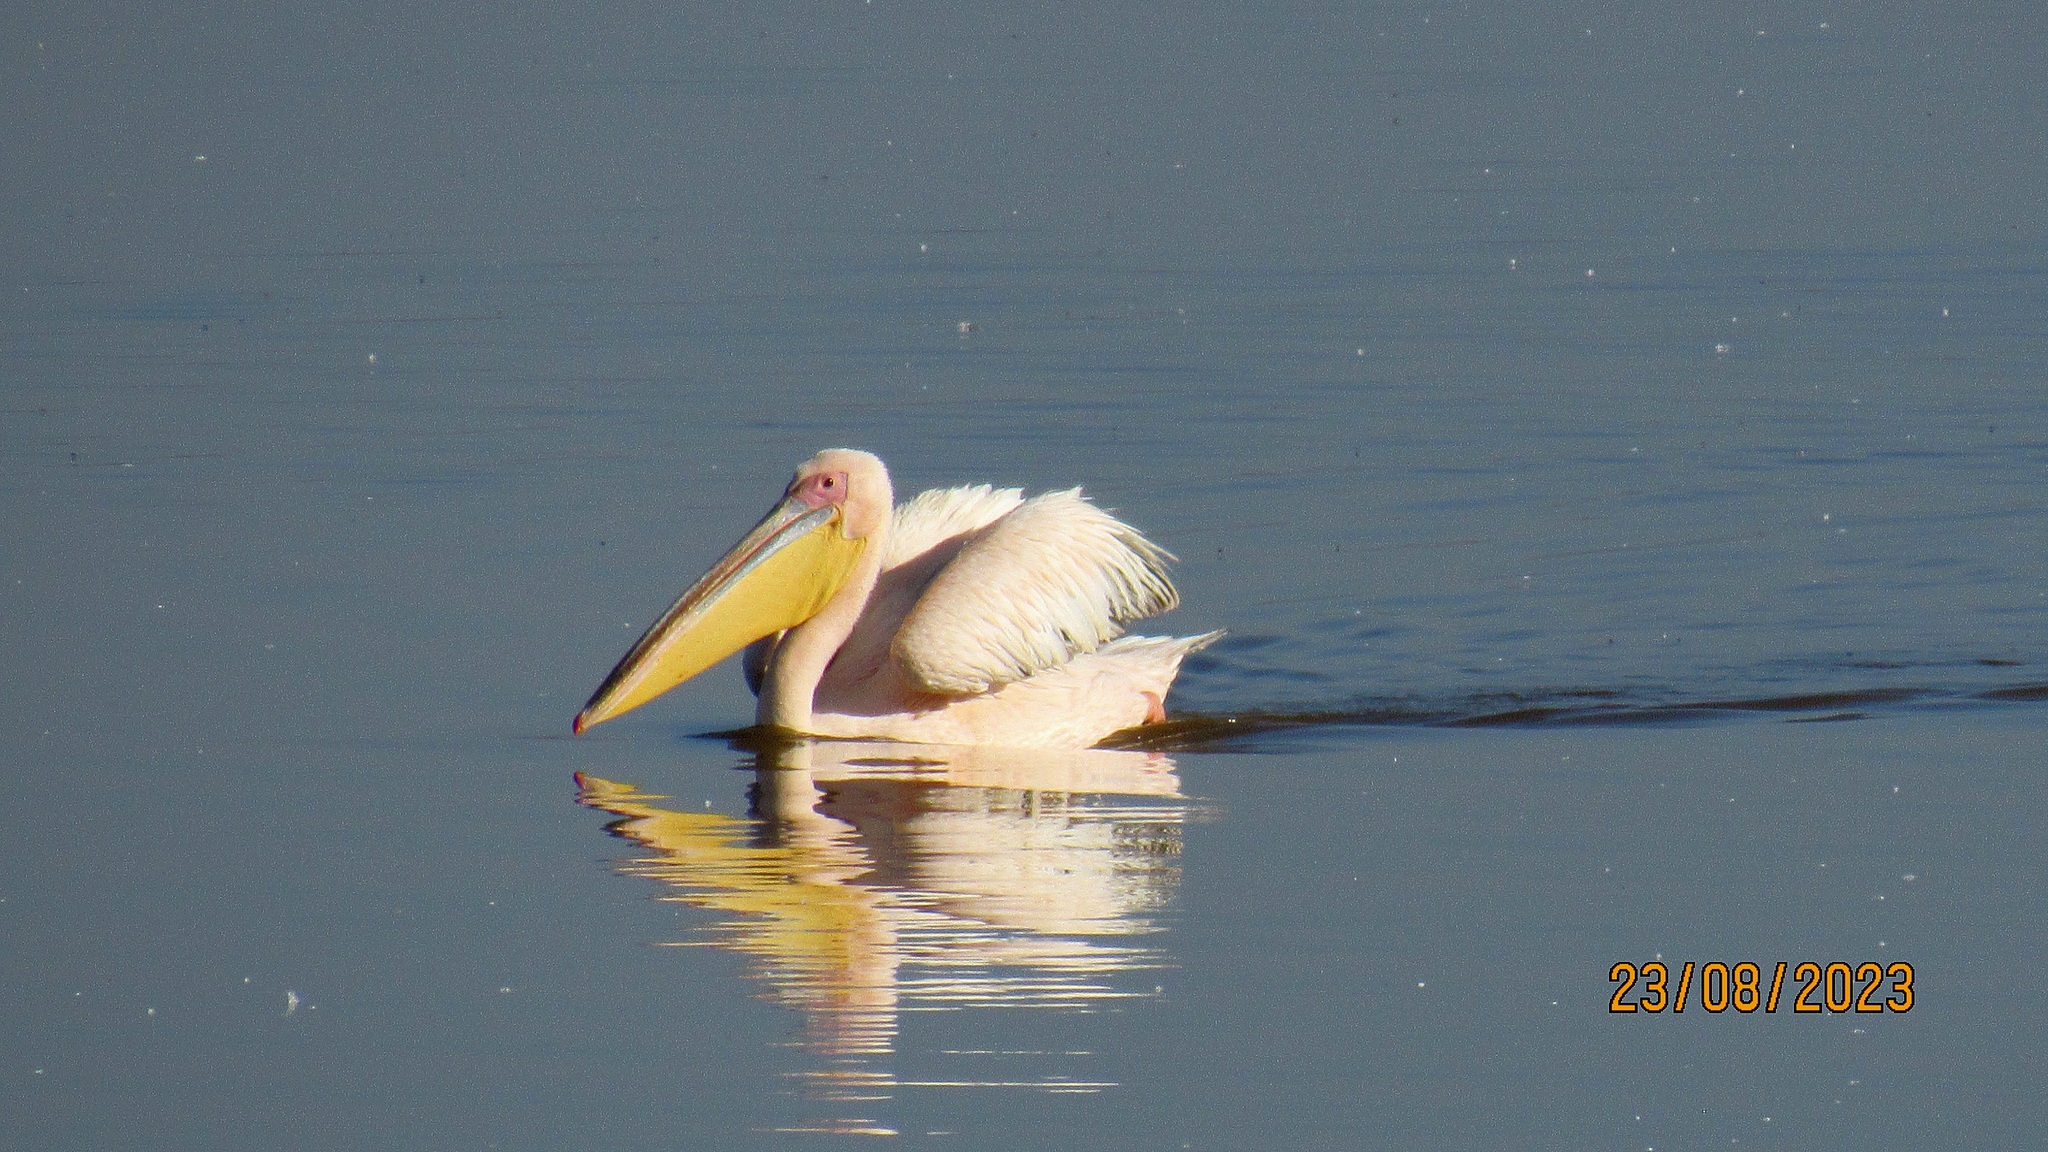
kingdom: Animalia
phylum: Chordata
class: Aves
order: Pelecaniformes
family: Pelecanidae
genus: Pelecanus
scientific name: Pelecanus onocrotalus
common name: Great white pelican
